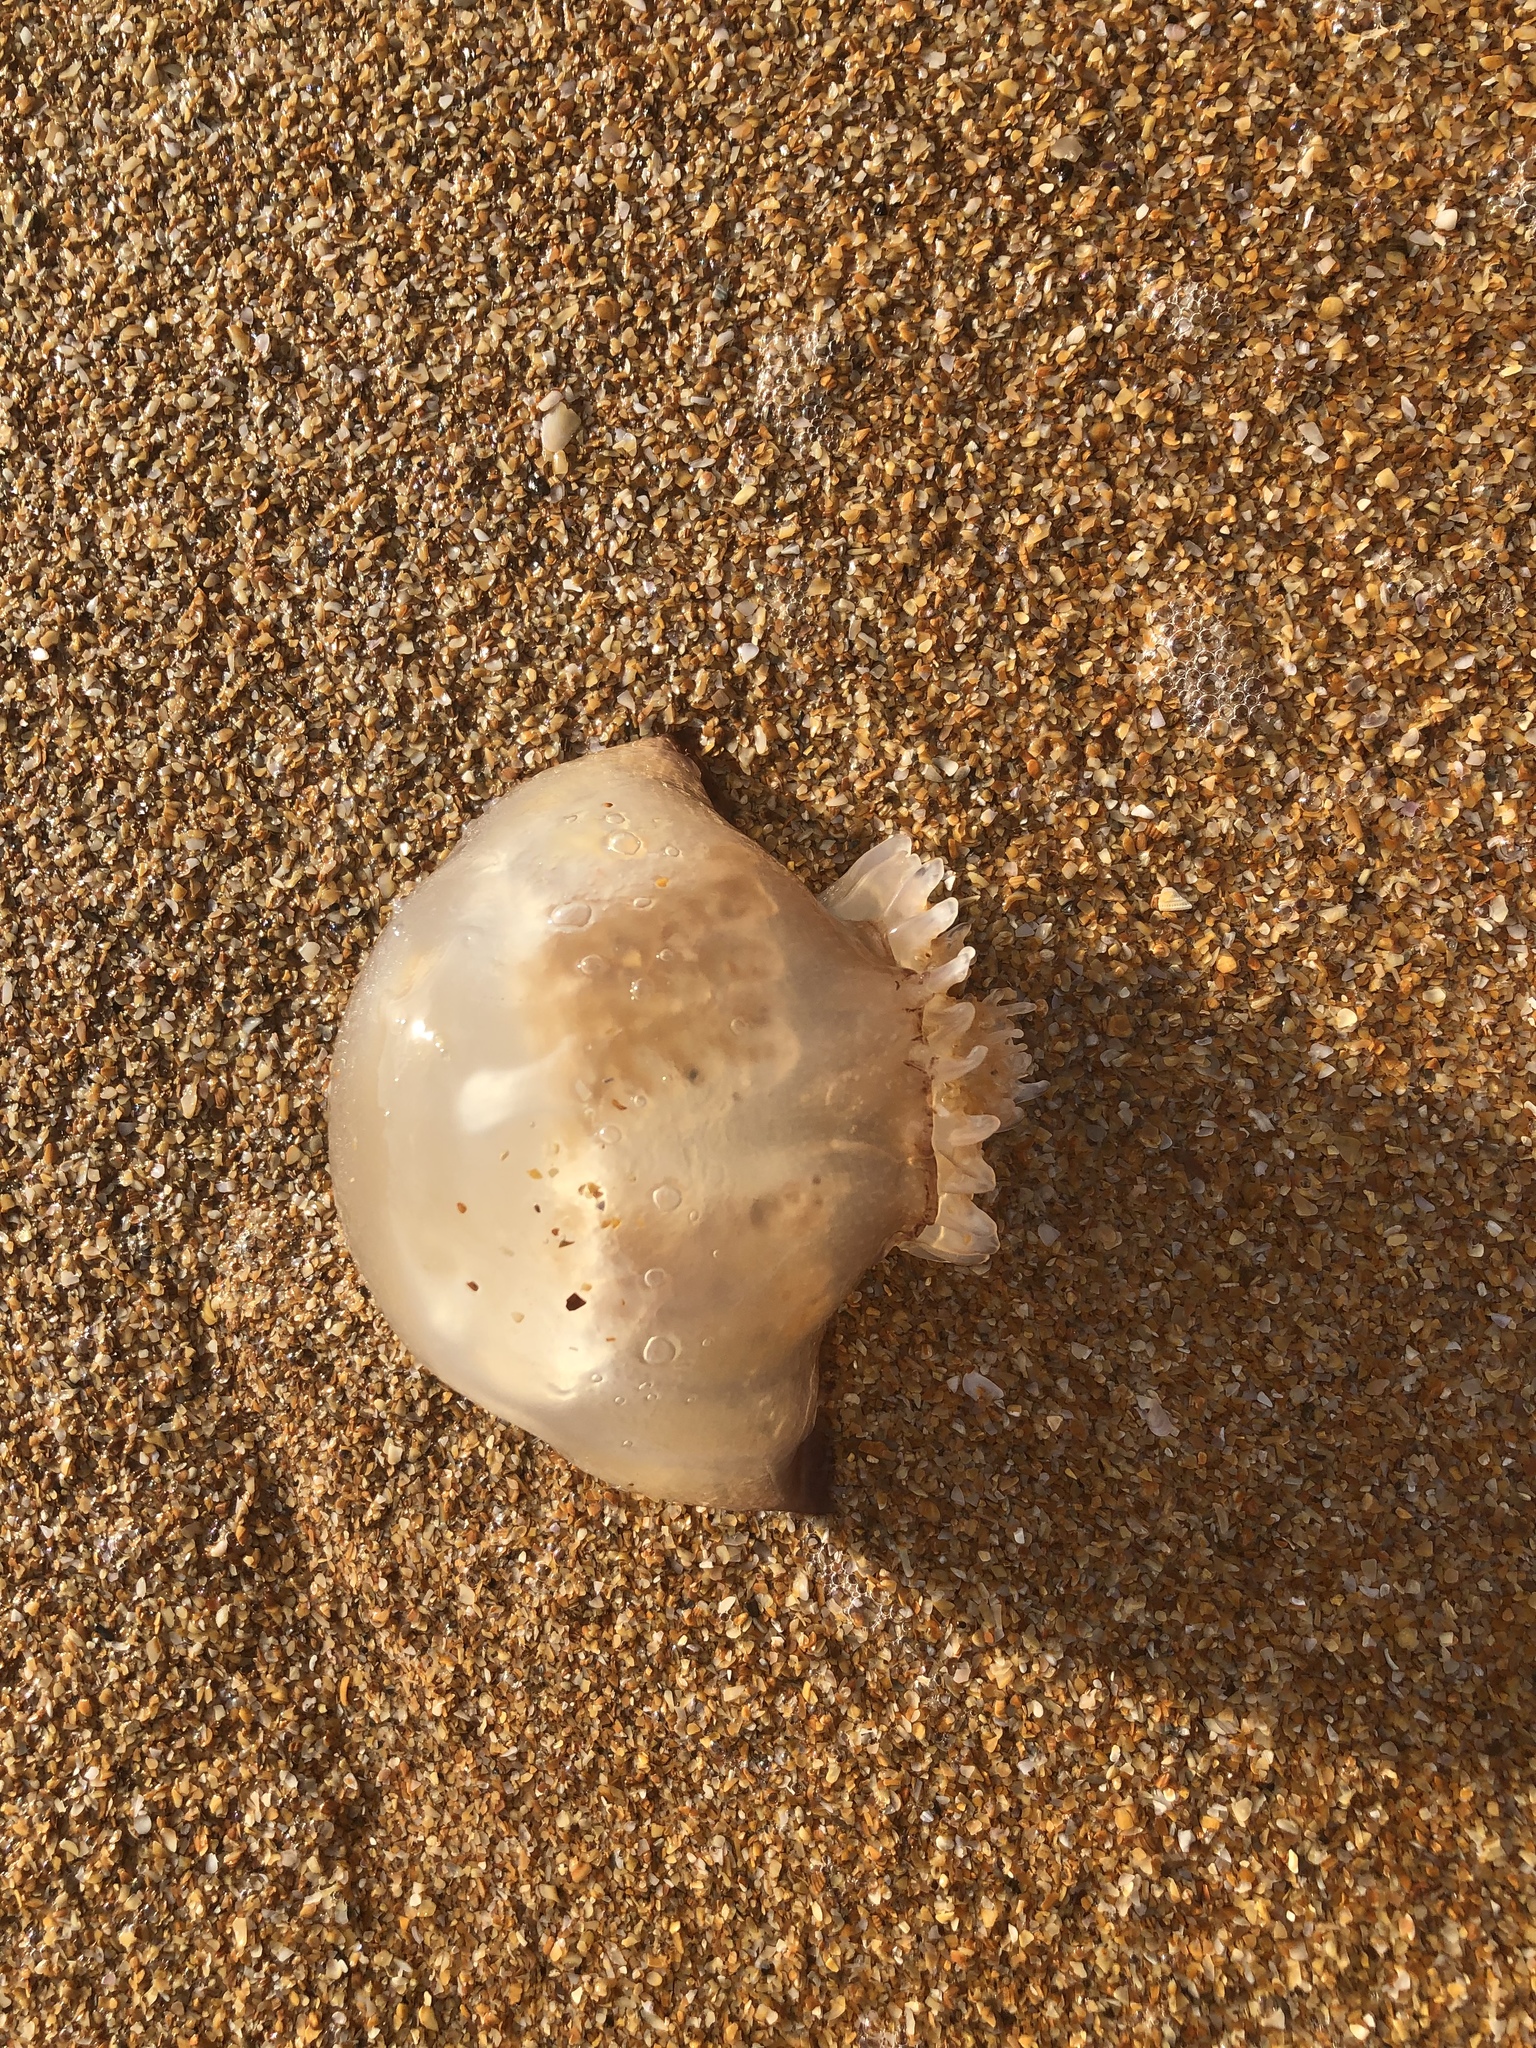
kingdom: Animalia
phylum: Cnidaria
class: Scyphozoa
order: Rhizostomeae
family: Stomolophidae
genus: Stomolophus
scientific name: Stomolophus meleagris
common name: Cabbagehead
